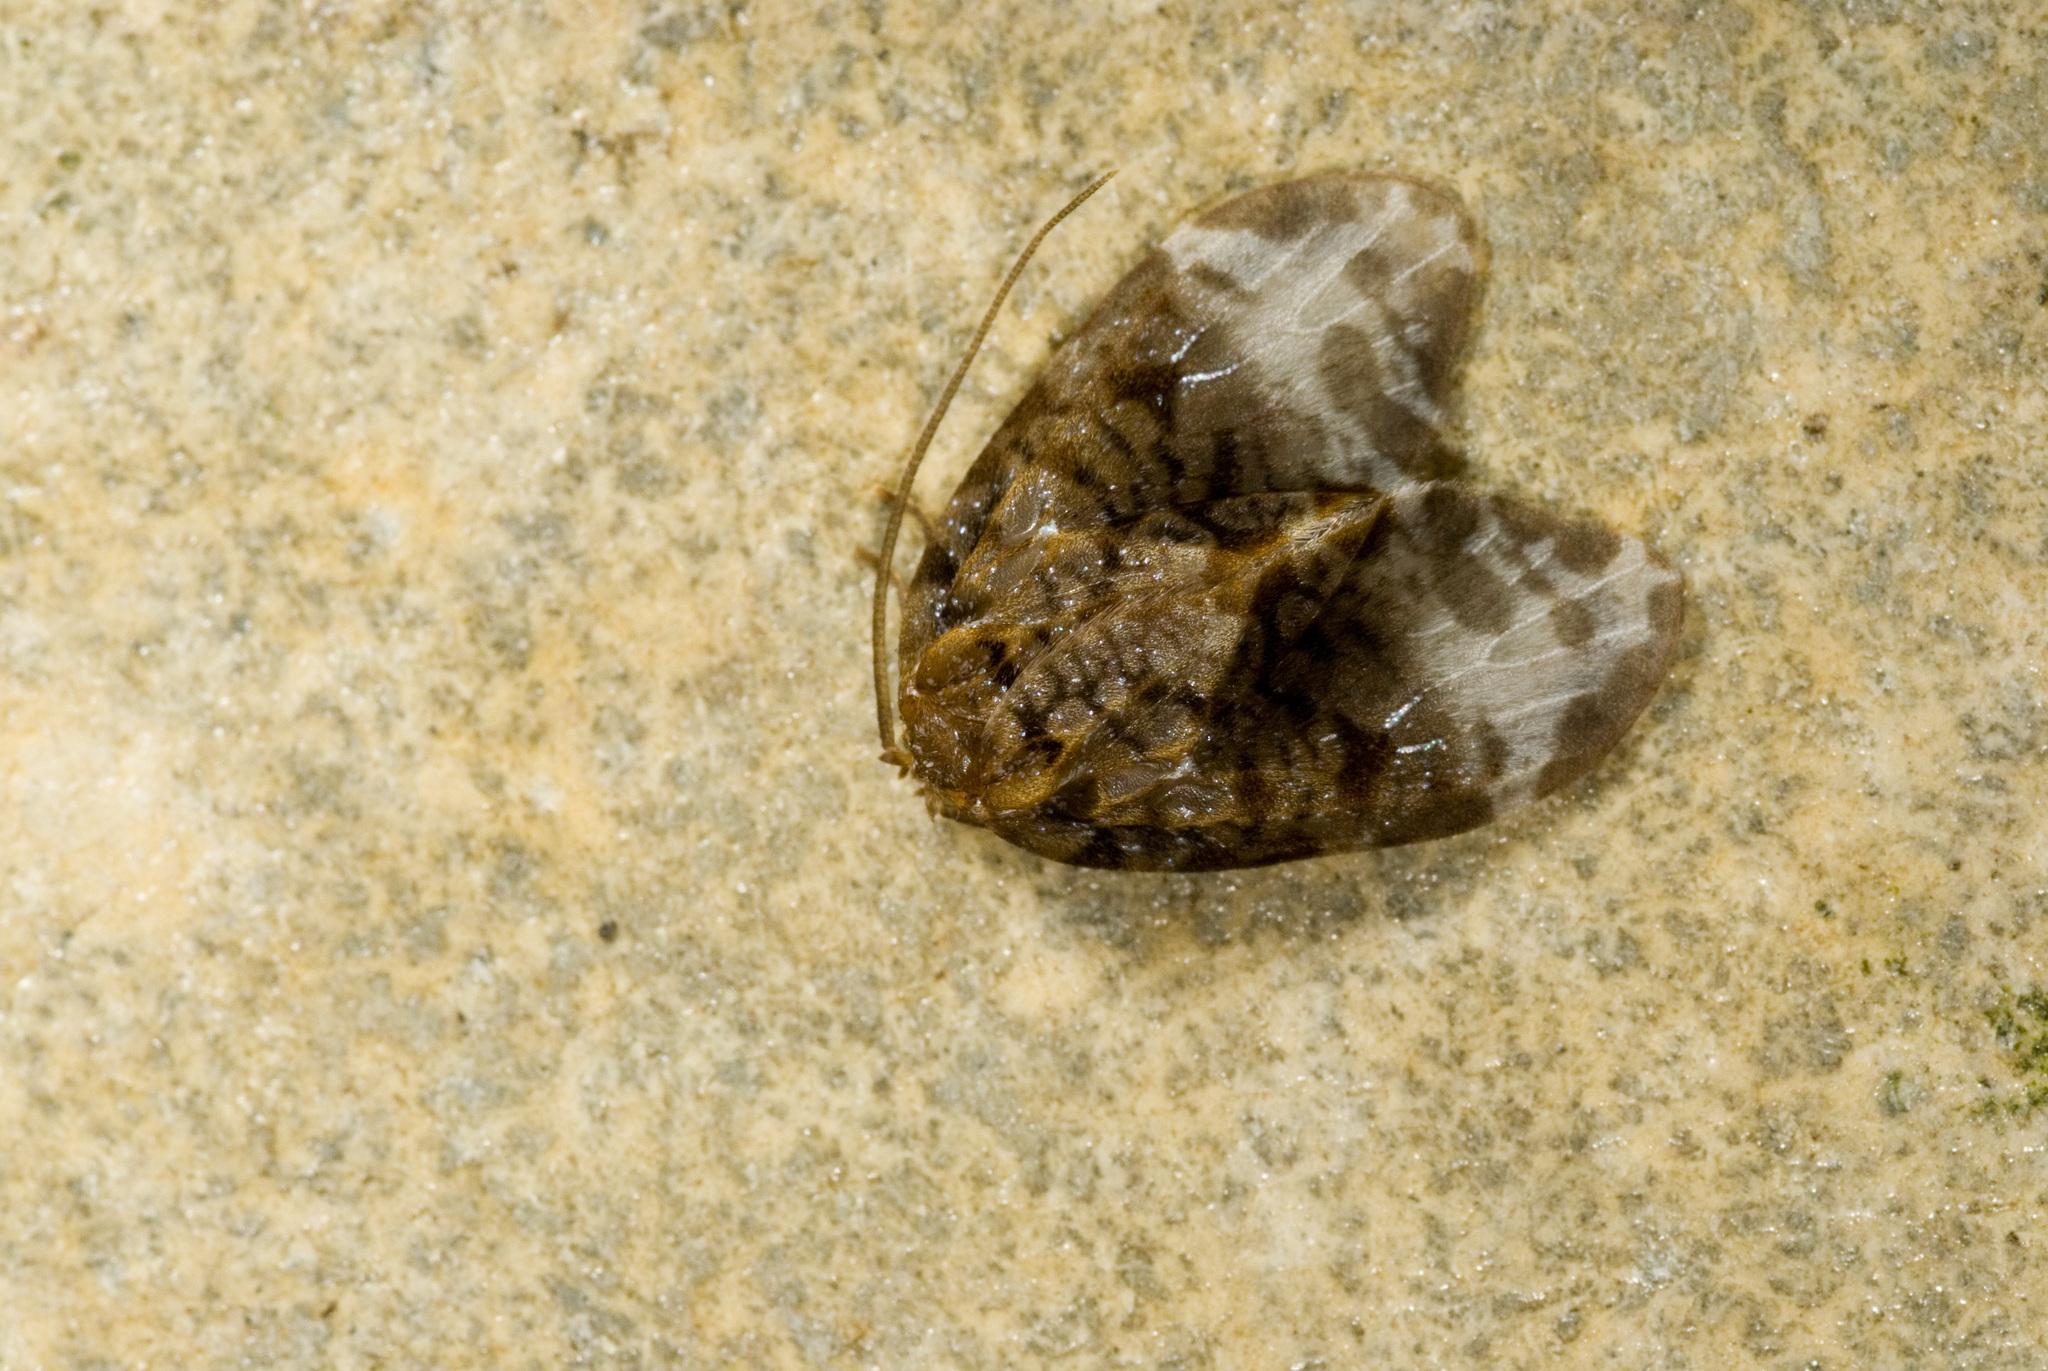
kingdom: Animalia
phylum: Arthropoda
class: Insecta
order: Lepidoptera
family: Neopseustidae
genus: Neopseustis
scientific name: Neopseustis meyricki
